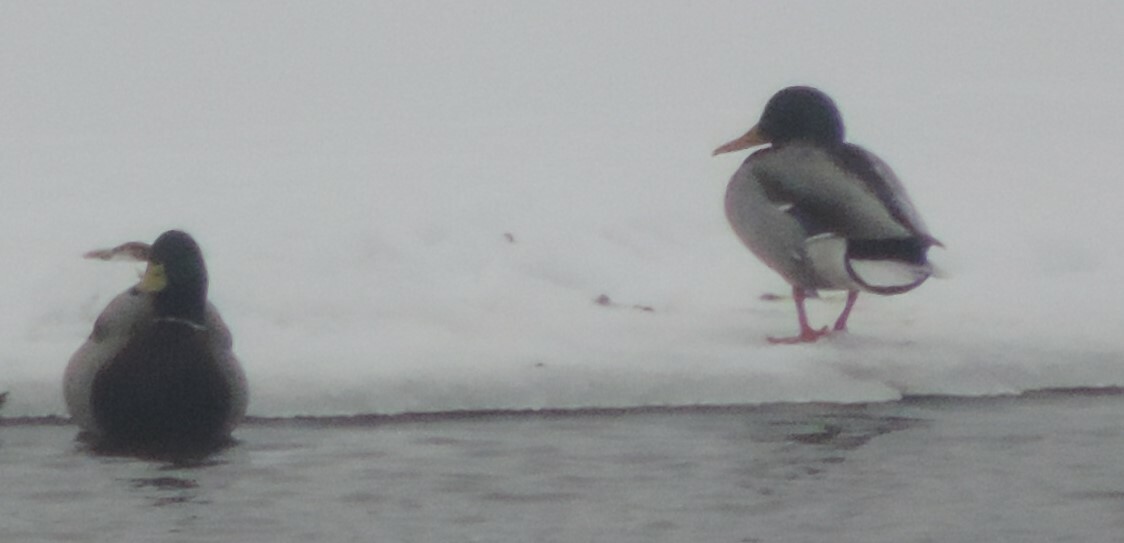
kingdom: Animalia
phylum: Chordata
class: Aves
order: Anseriformes
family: Anatidae
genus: Anas
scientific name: Anas platyrhynchos
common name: Mallard
